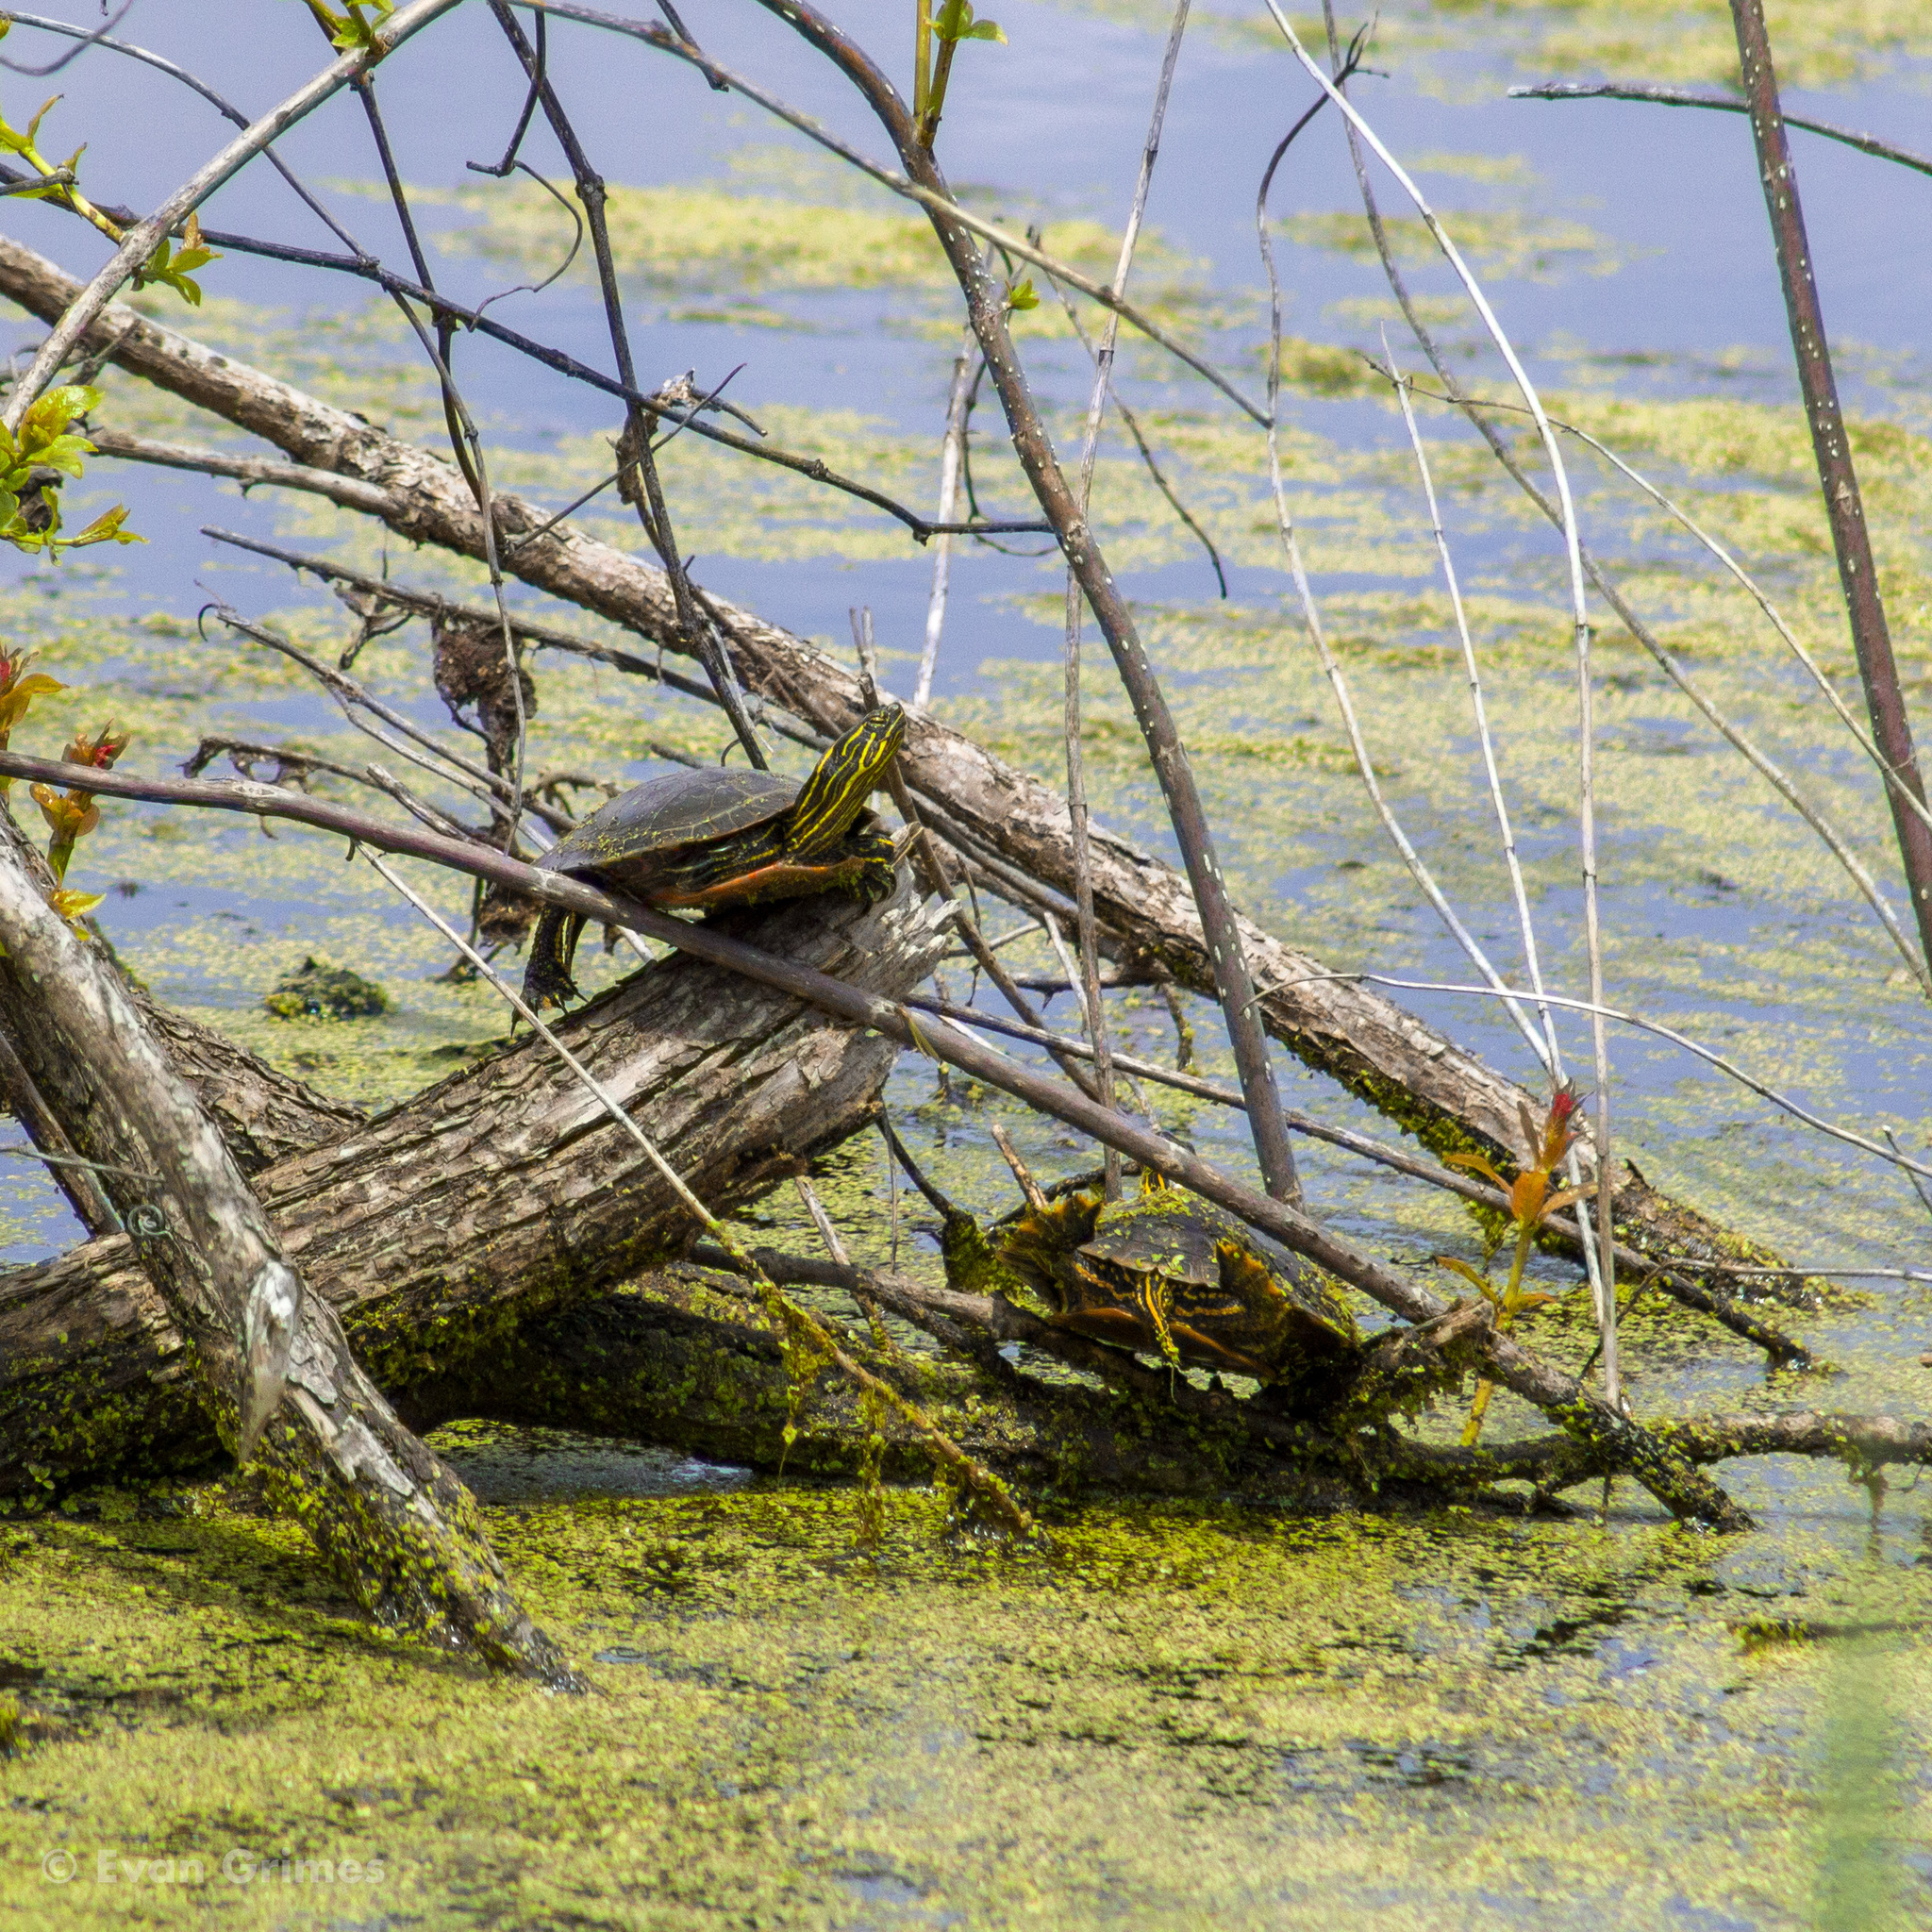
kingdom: Animalia
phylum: Chordata
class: Testudines
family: Emydidae
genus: Chrysemys
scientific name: Chrysemys picta
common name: Painted turtle
